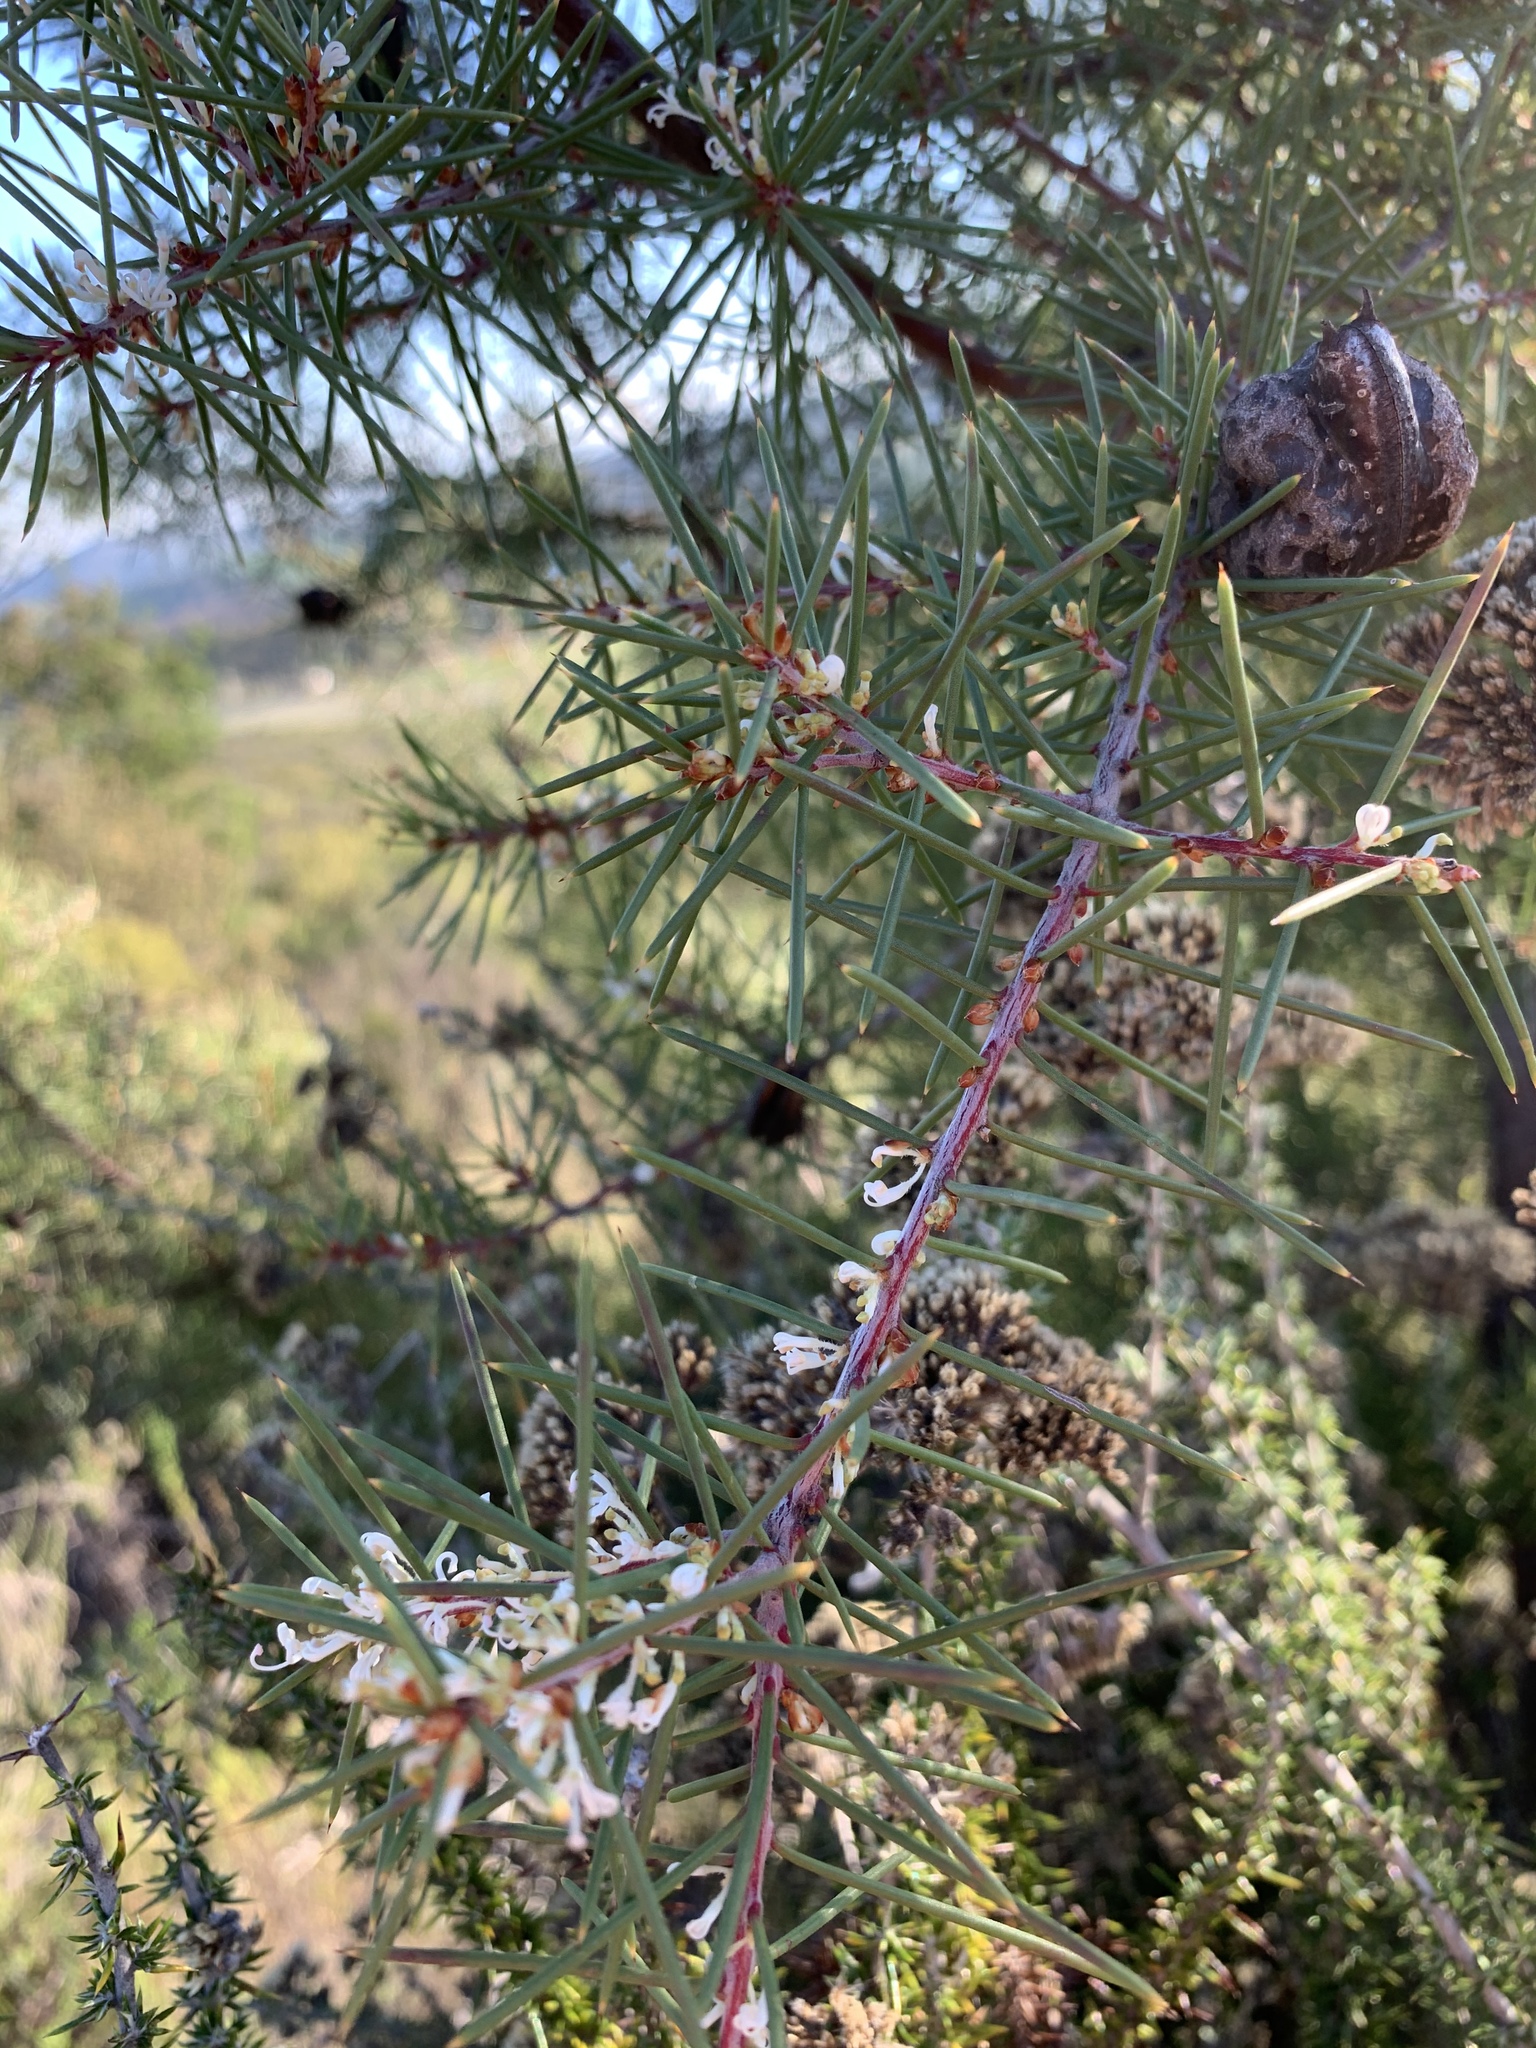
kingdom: Plantae
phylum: Tracheophyta
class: Magnoliopsida
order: Proteales
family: Proteaceae
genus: Hakea
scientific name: Hakea sericea
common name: Needle bush
